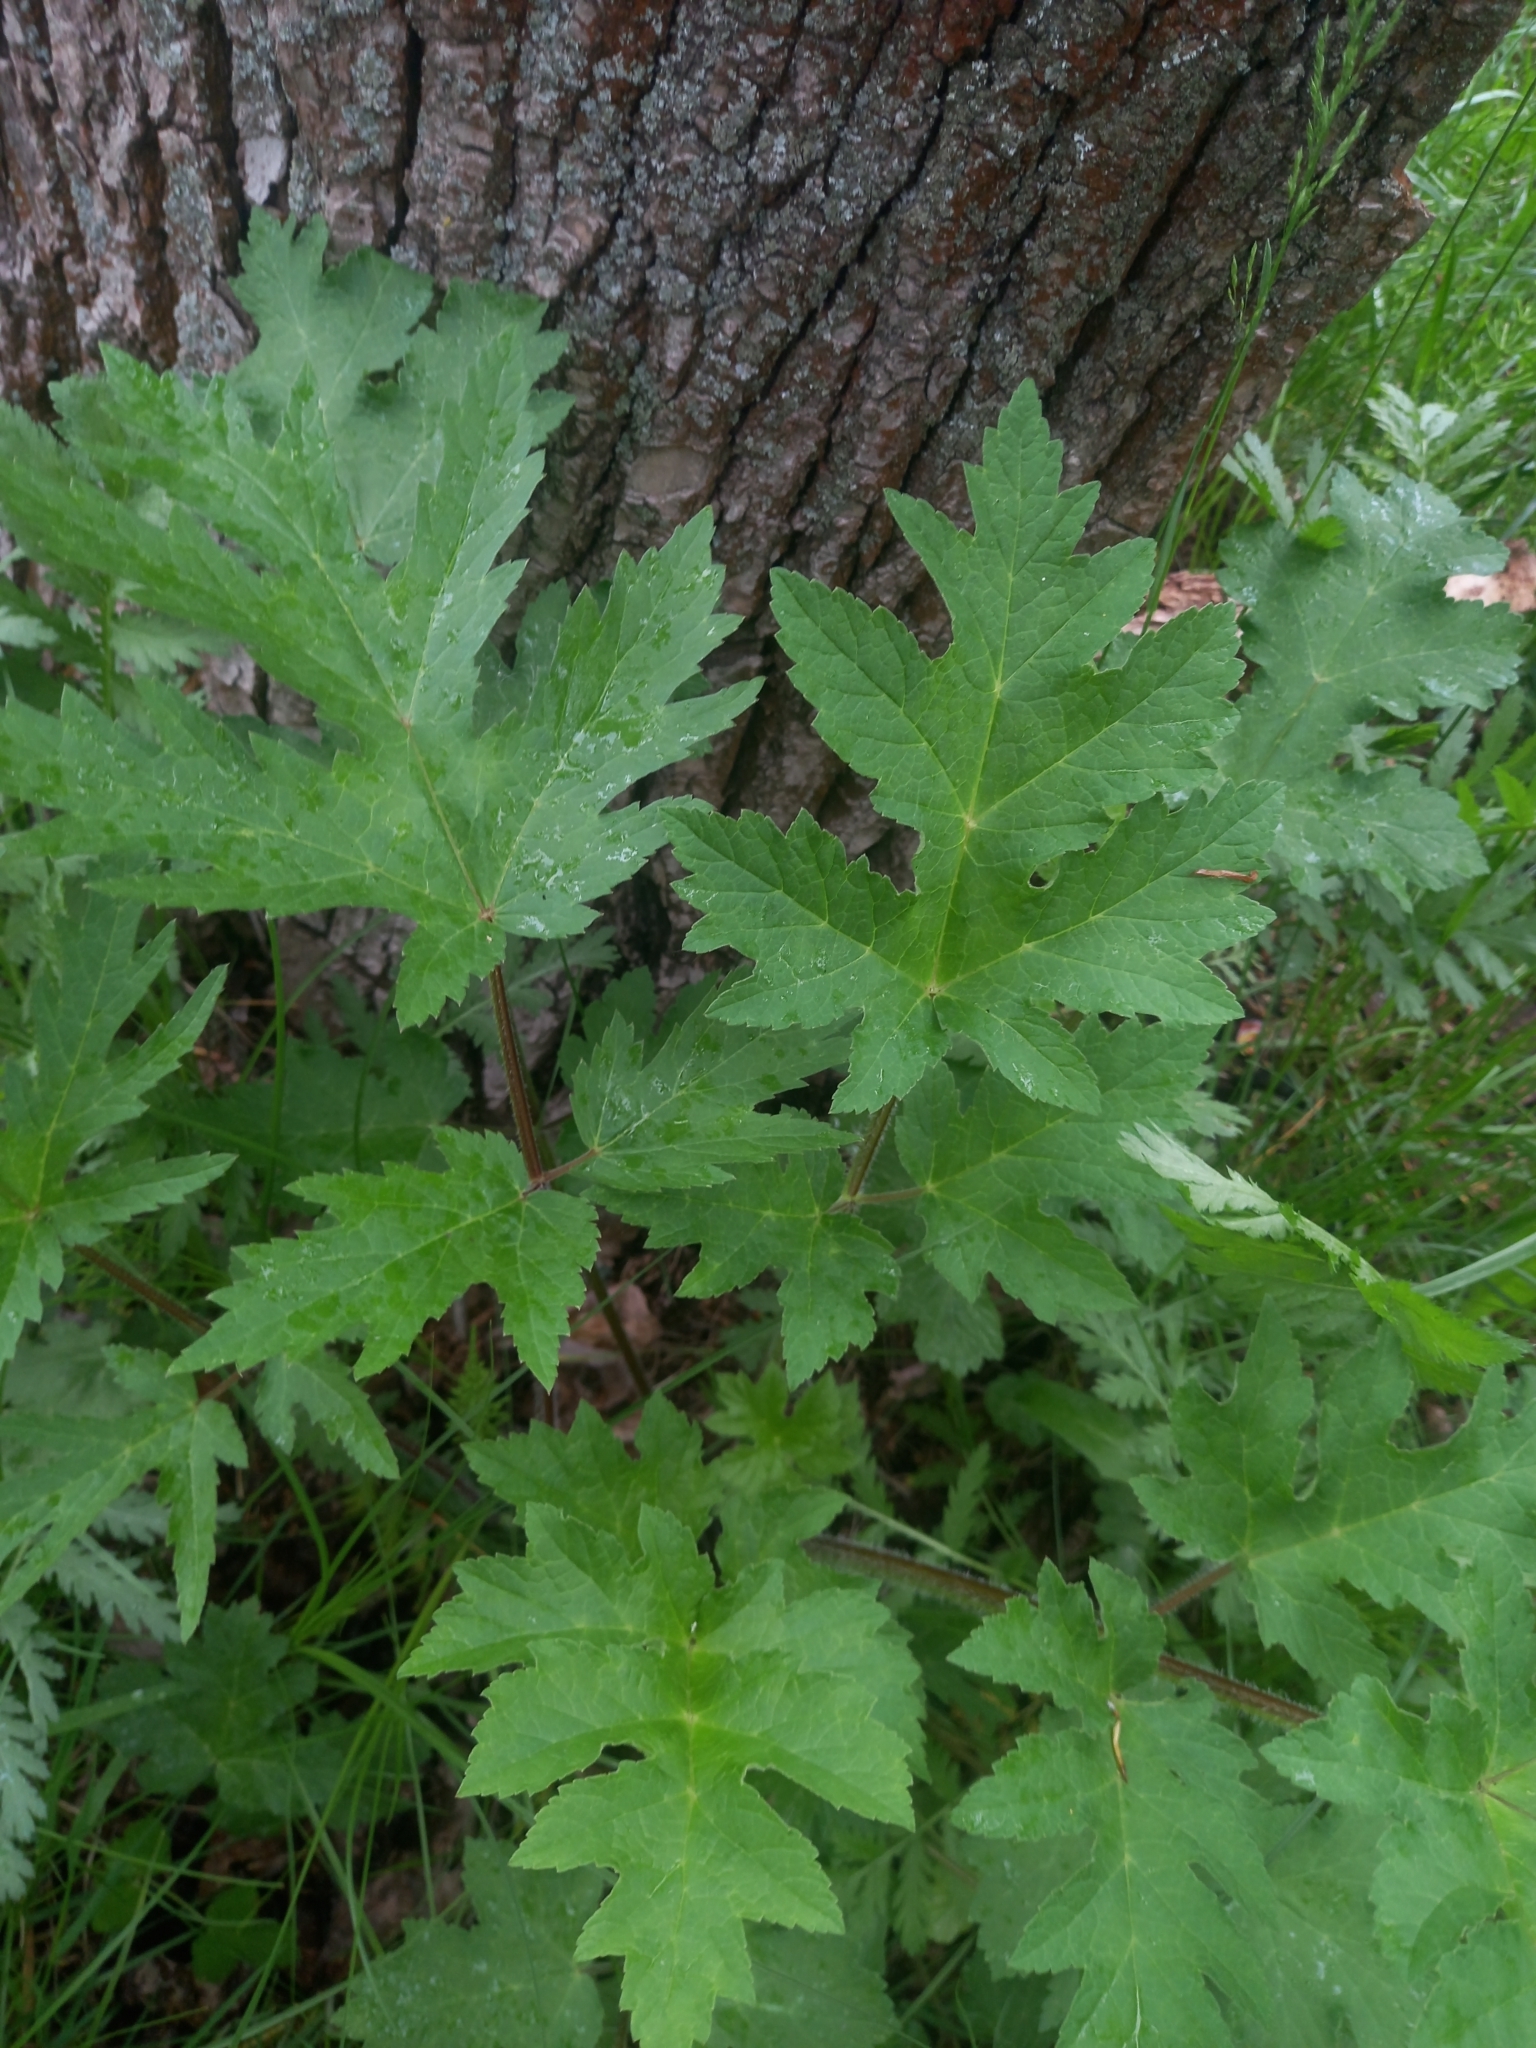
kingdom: Plantae
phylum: Tracheophyta
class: Magnoliopsida
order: Apiales
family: Apiaceae
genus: Heracleum
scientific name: Heracleum sphondylium
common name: Hogweed
